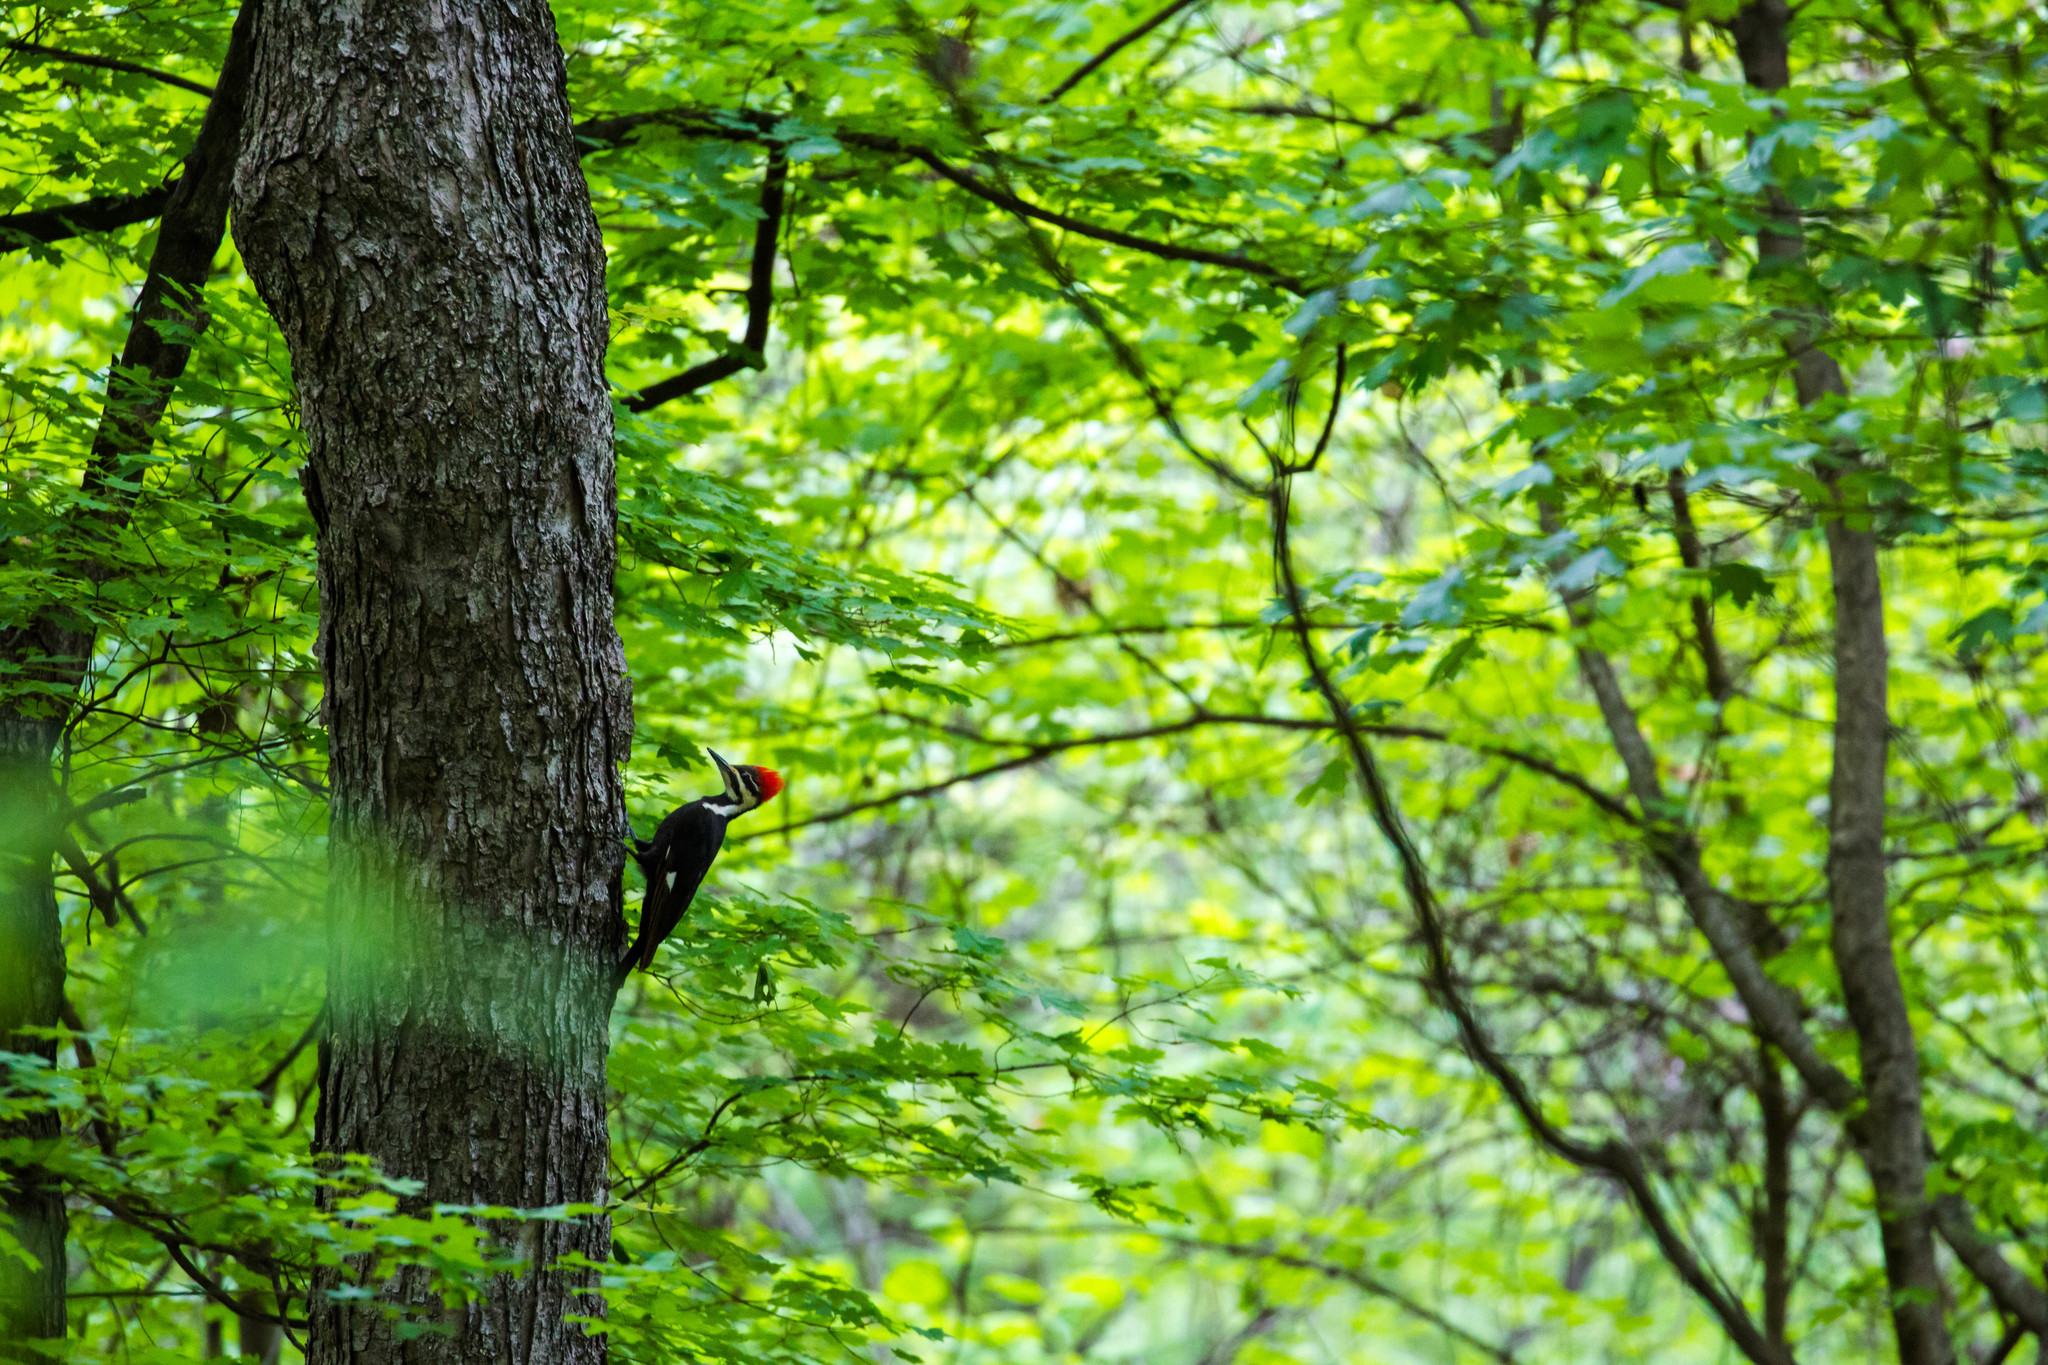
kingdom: Animalia
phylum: Chordata
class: Aves
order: Piciformes
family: Picidae
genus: Dryocopus
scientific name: Dryocopus pileatus
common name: Pileated woodpecker
